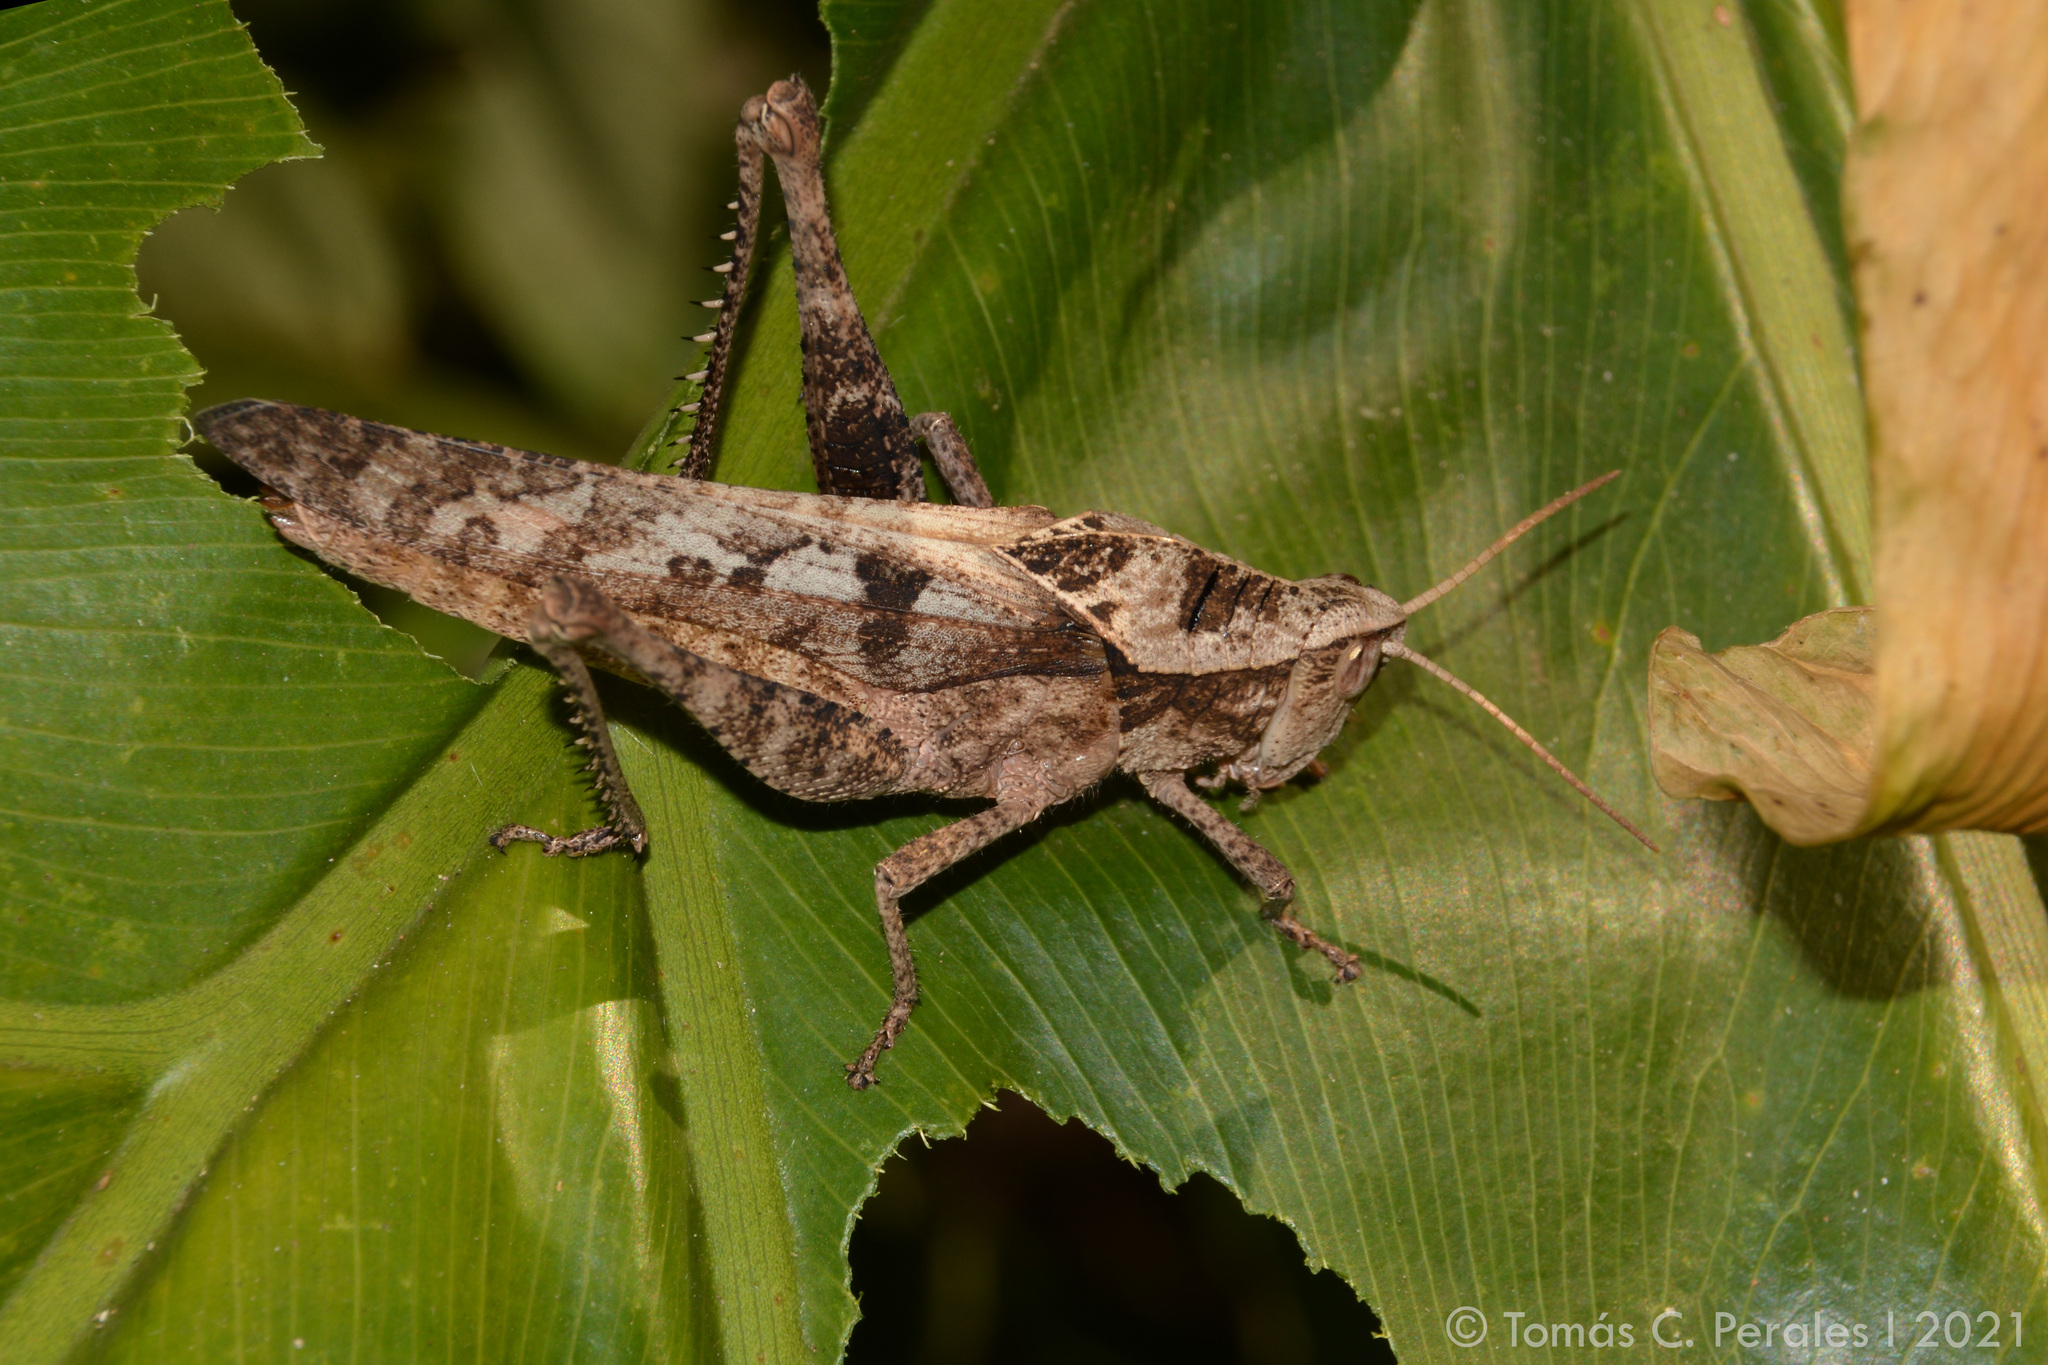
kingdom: Animalia
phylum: Arthropoda
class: Insecta
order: Orthoptera
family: Romaleidae
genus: Xyleus
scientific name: Xyleus discoideus
